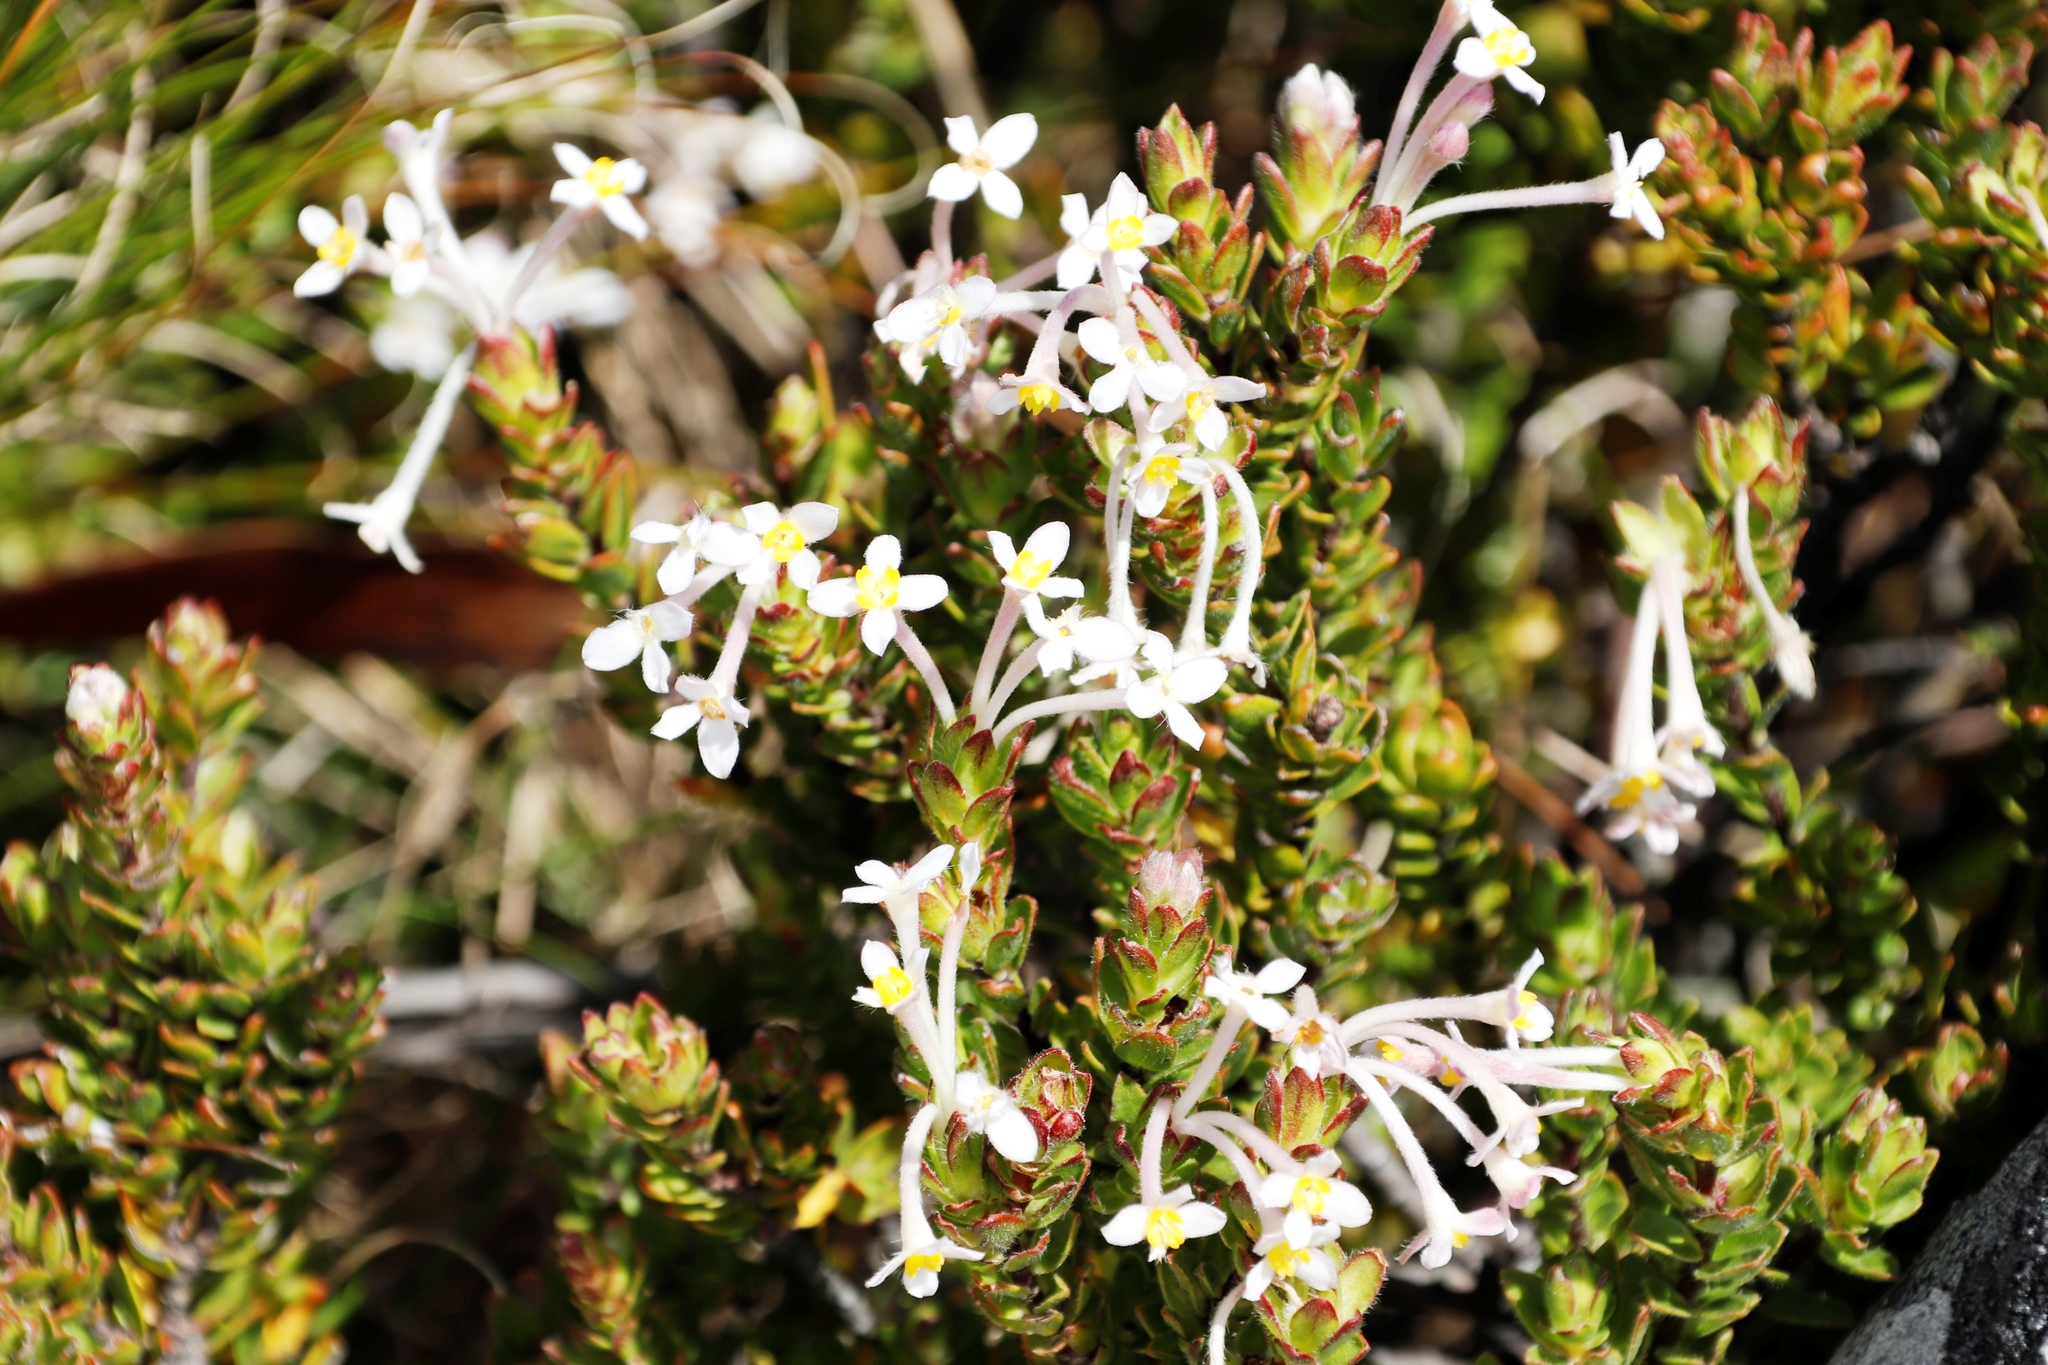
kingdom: Plantae
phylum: Tracheophyta
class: Magnoliopsida
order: Malvales
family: Thymelaeaceae
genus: Gnidia
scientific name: Gnidia tomentosa
